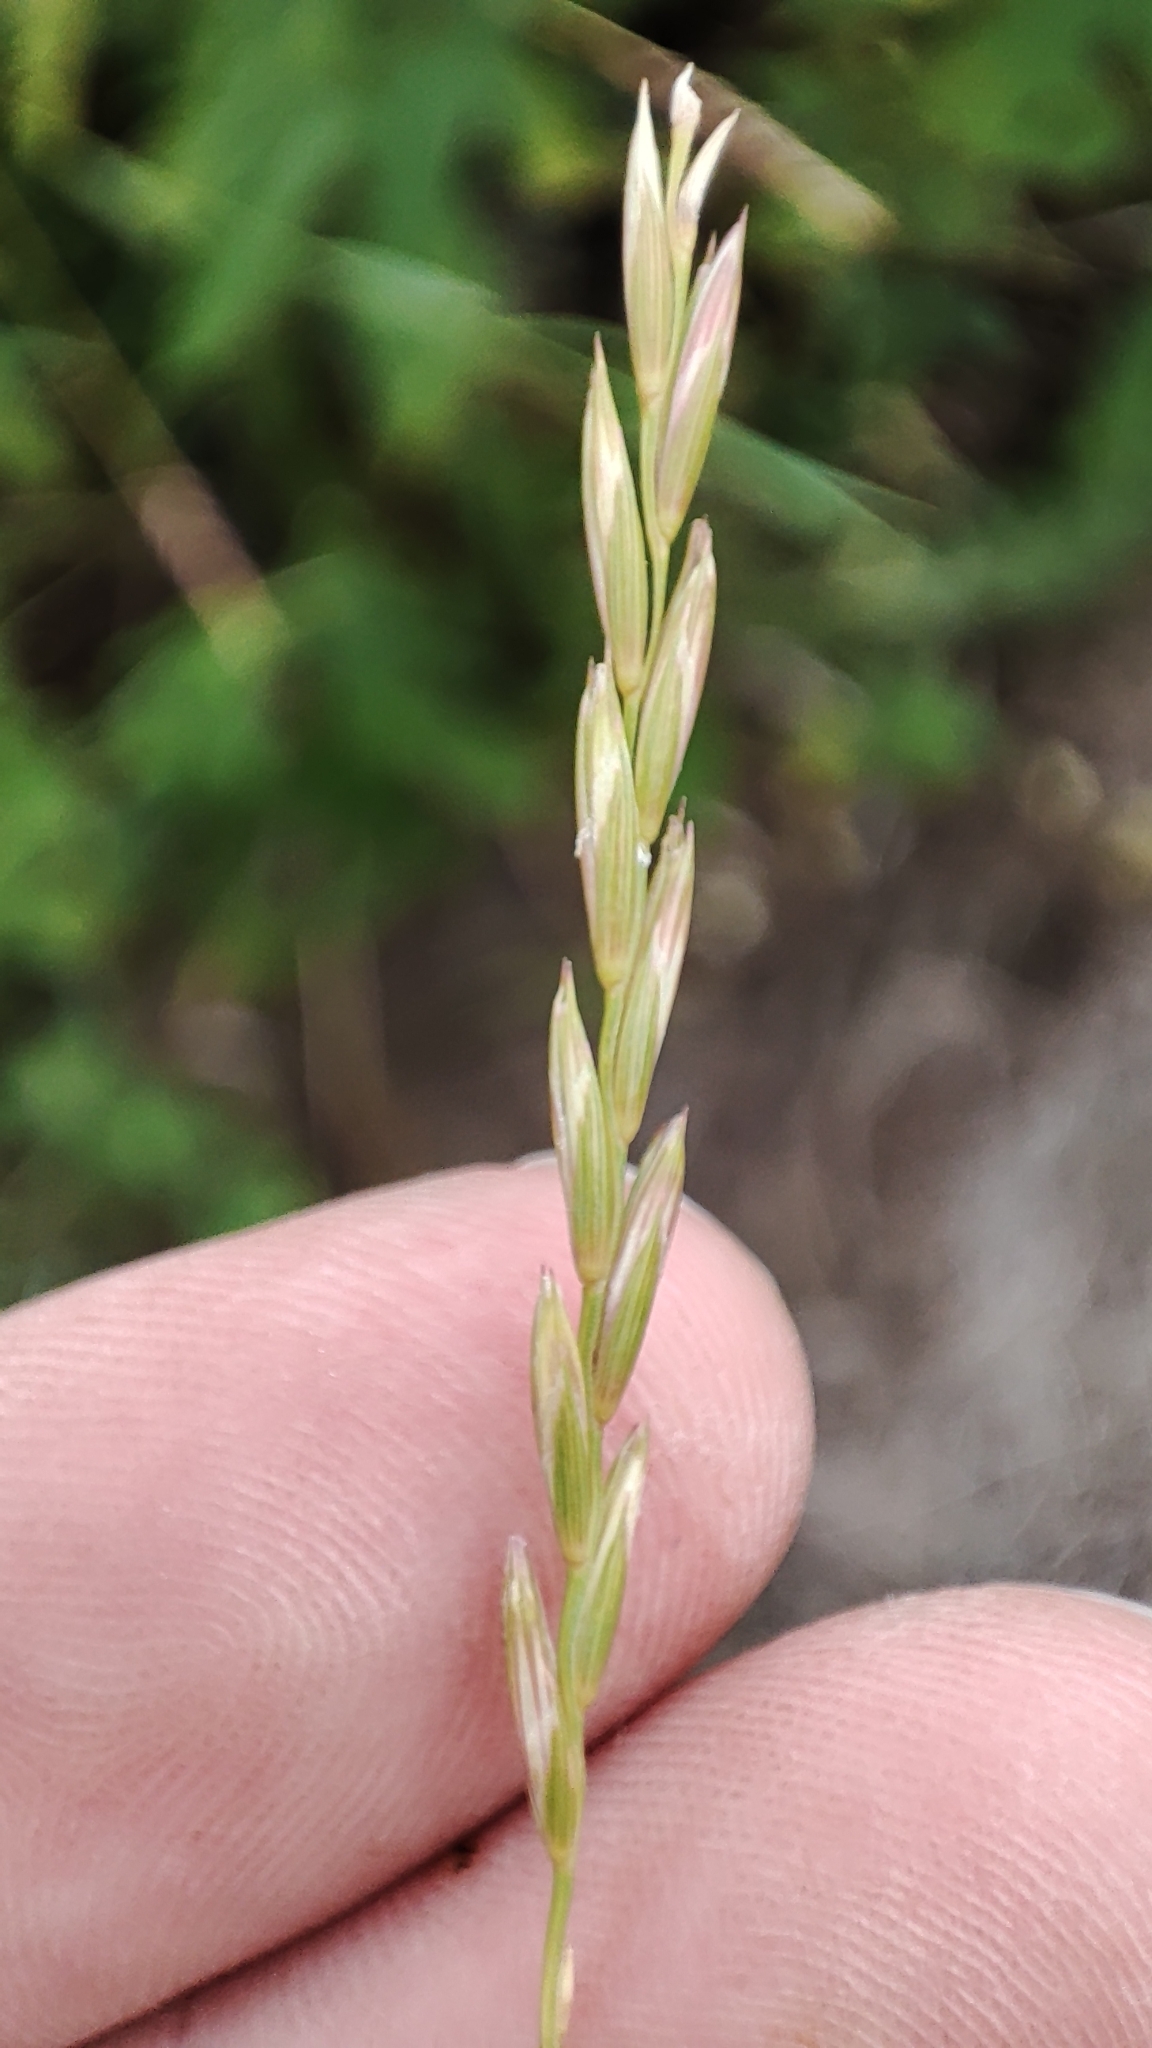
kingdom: Plantae
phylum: Tracheophyta
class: Liliopsida
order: Poales
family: Poaceae
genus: Elymus
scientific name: Elymus repens
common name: Quackgrass
